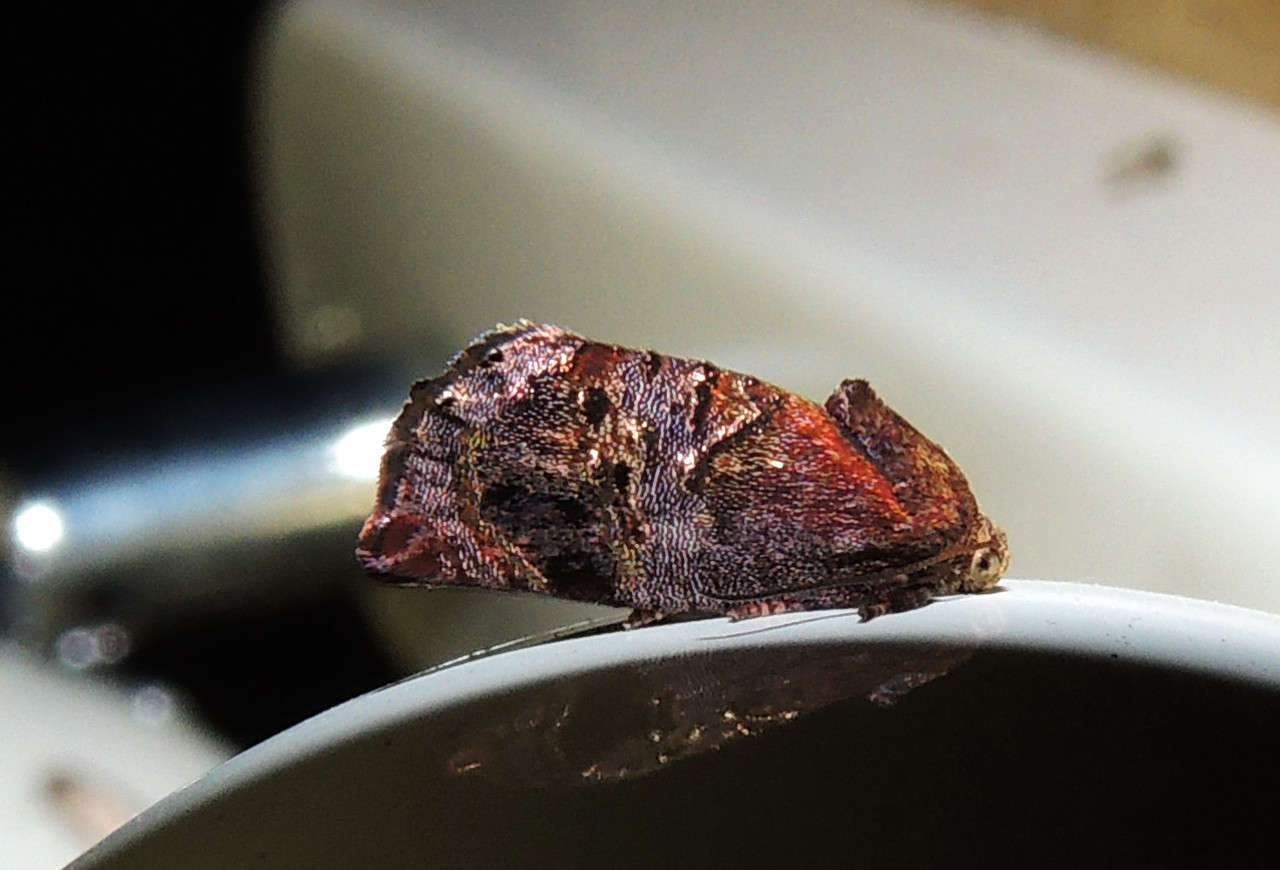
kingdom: Animalia
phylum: Arthropoda
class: Insecta
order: Lepidoptera
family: Depressariidae
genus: Peritropha
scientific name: Peritropha oligodrachma
